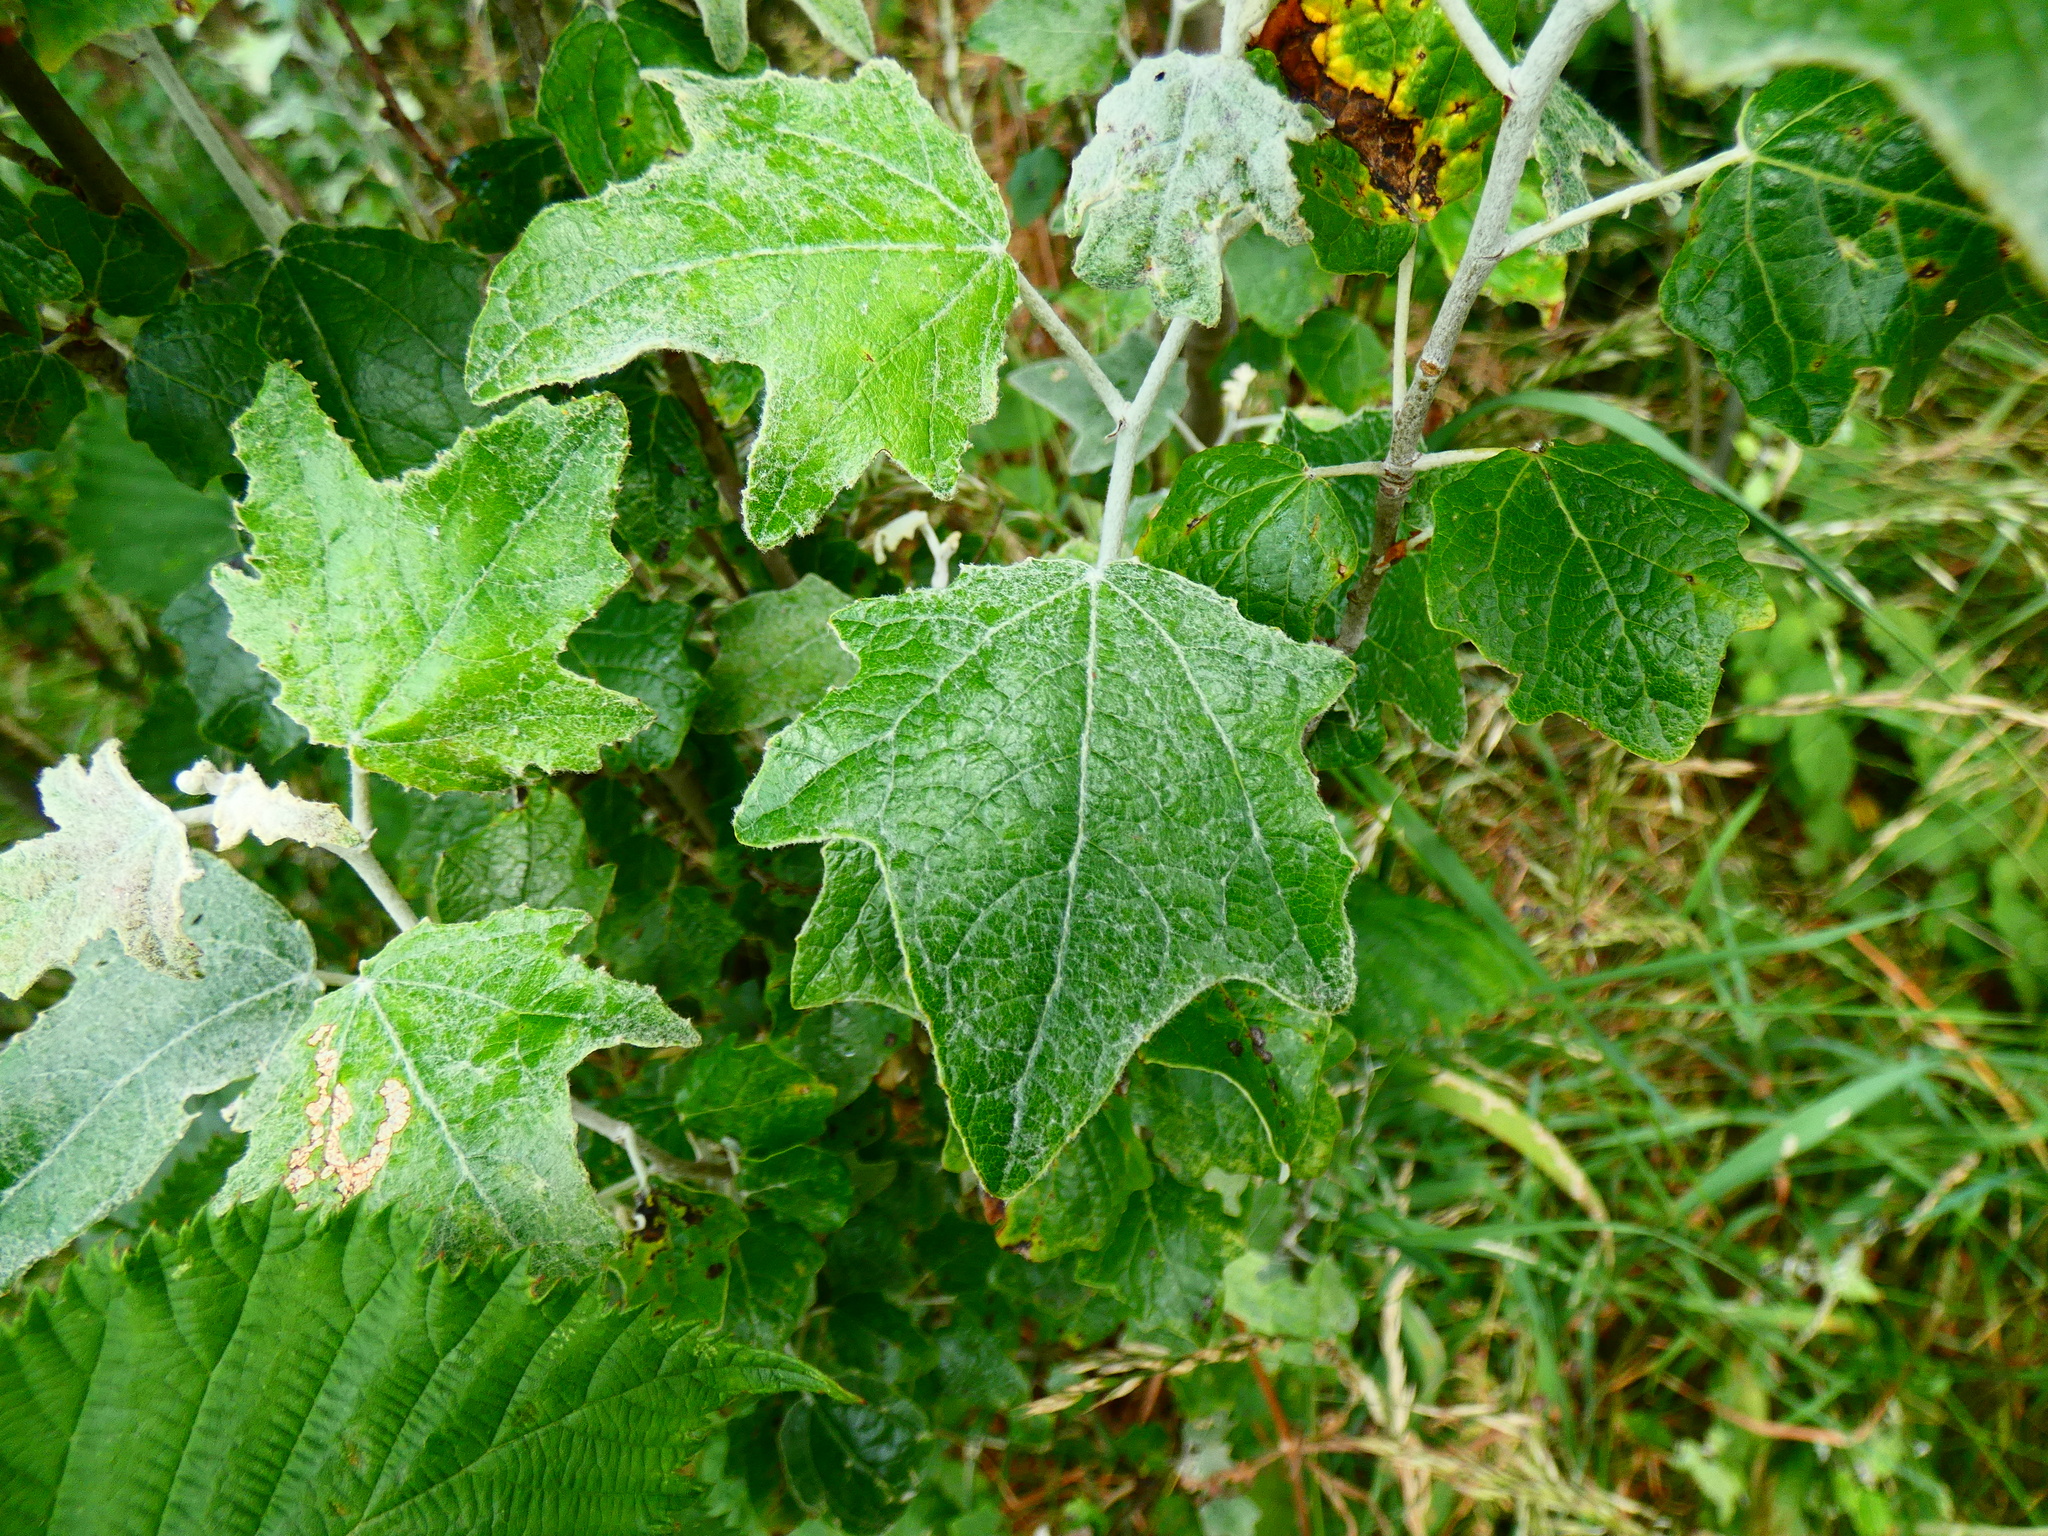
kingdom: Plantae
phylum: Tracheophyta
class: Magnoliopsida
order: Malpighiales
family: Salicaceae
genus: Populus
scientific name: Populus alba
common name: White poplar
